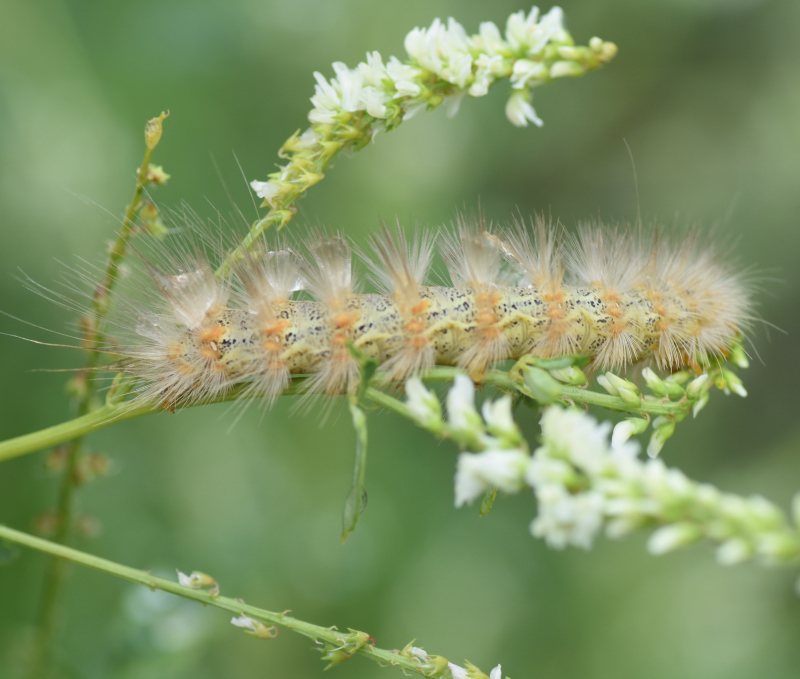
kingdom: Animalia
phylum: Arthropoda
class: Insecta
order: Lepidoptera
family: Erebidae
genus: Estigmene
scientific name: Estigmene acrea
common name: Salt marsh moth
